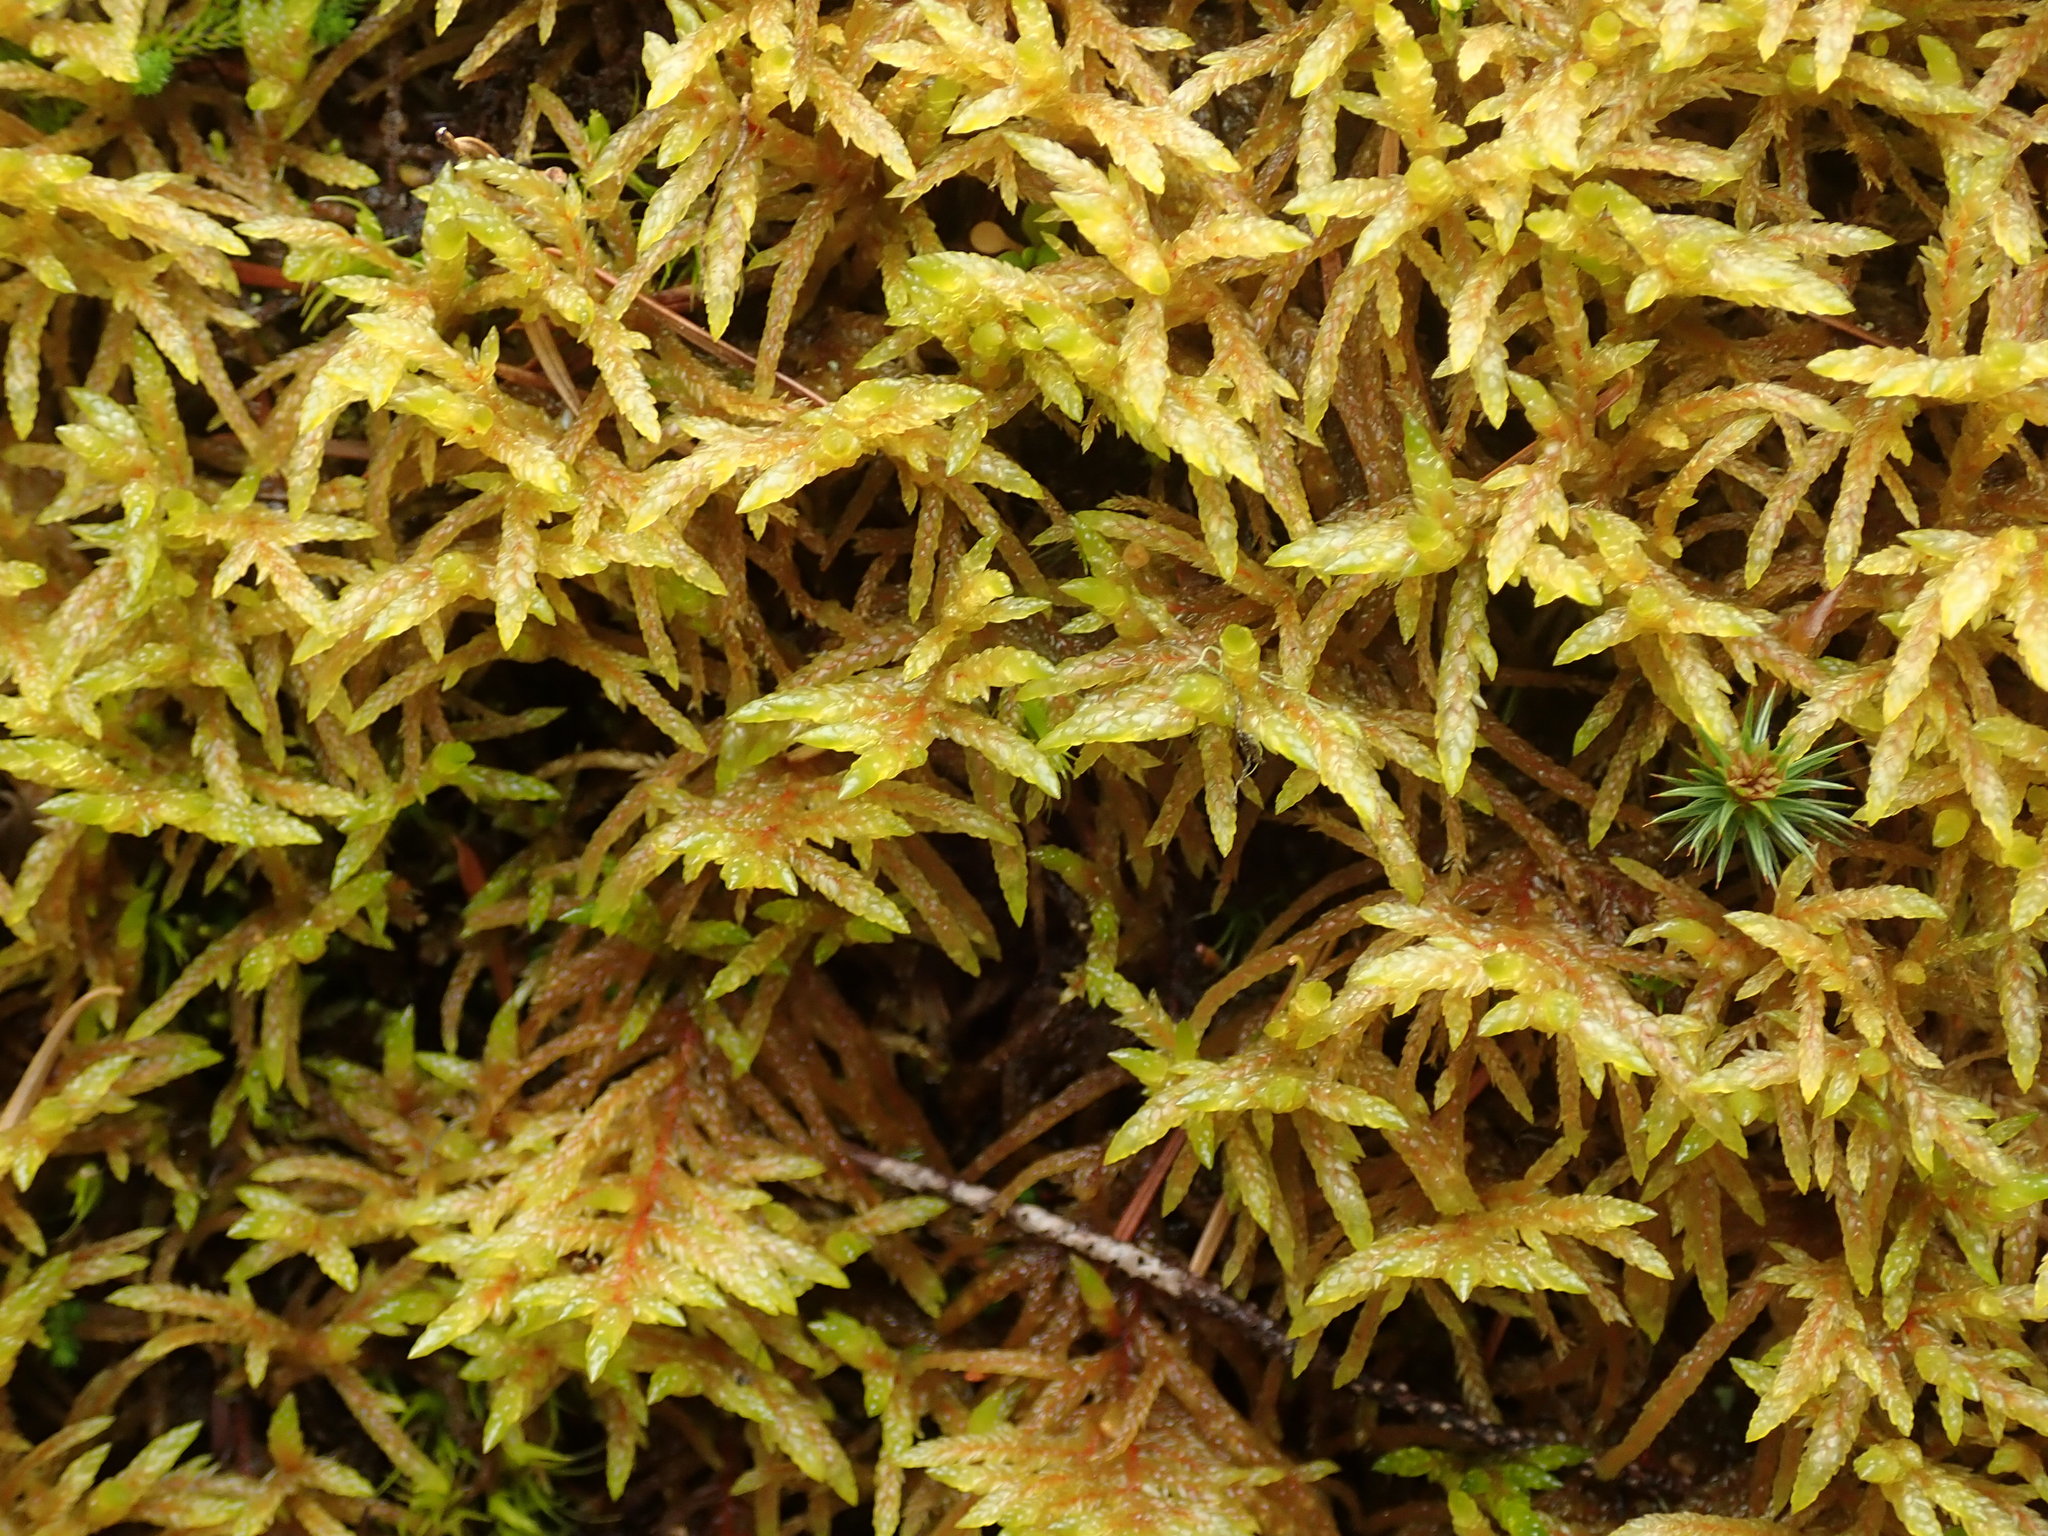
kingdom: Plantae
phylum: Bryophyta
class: Bryopsida
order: Hypnales
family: Hylocomiaceae
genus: Pleurozium
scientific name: Pleurozium schreberi
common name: Red-stemmed feather moss
